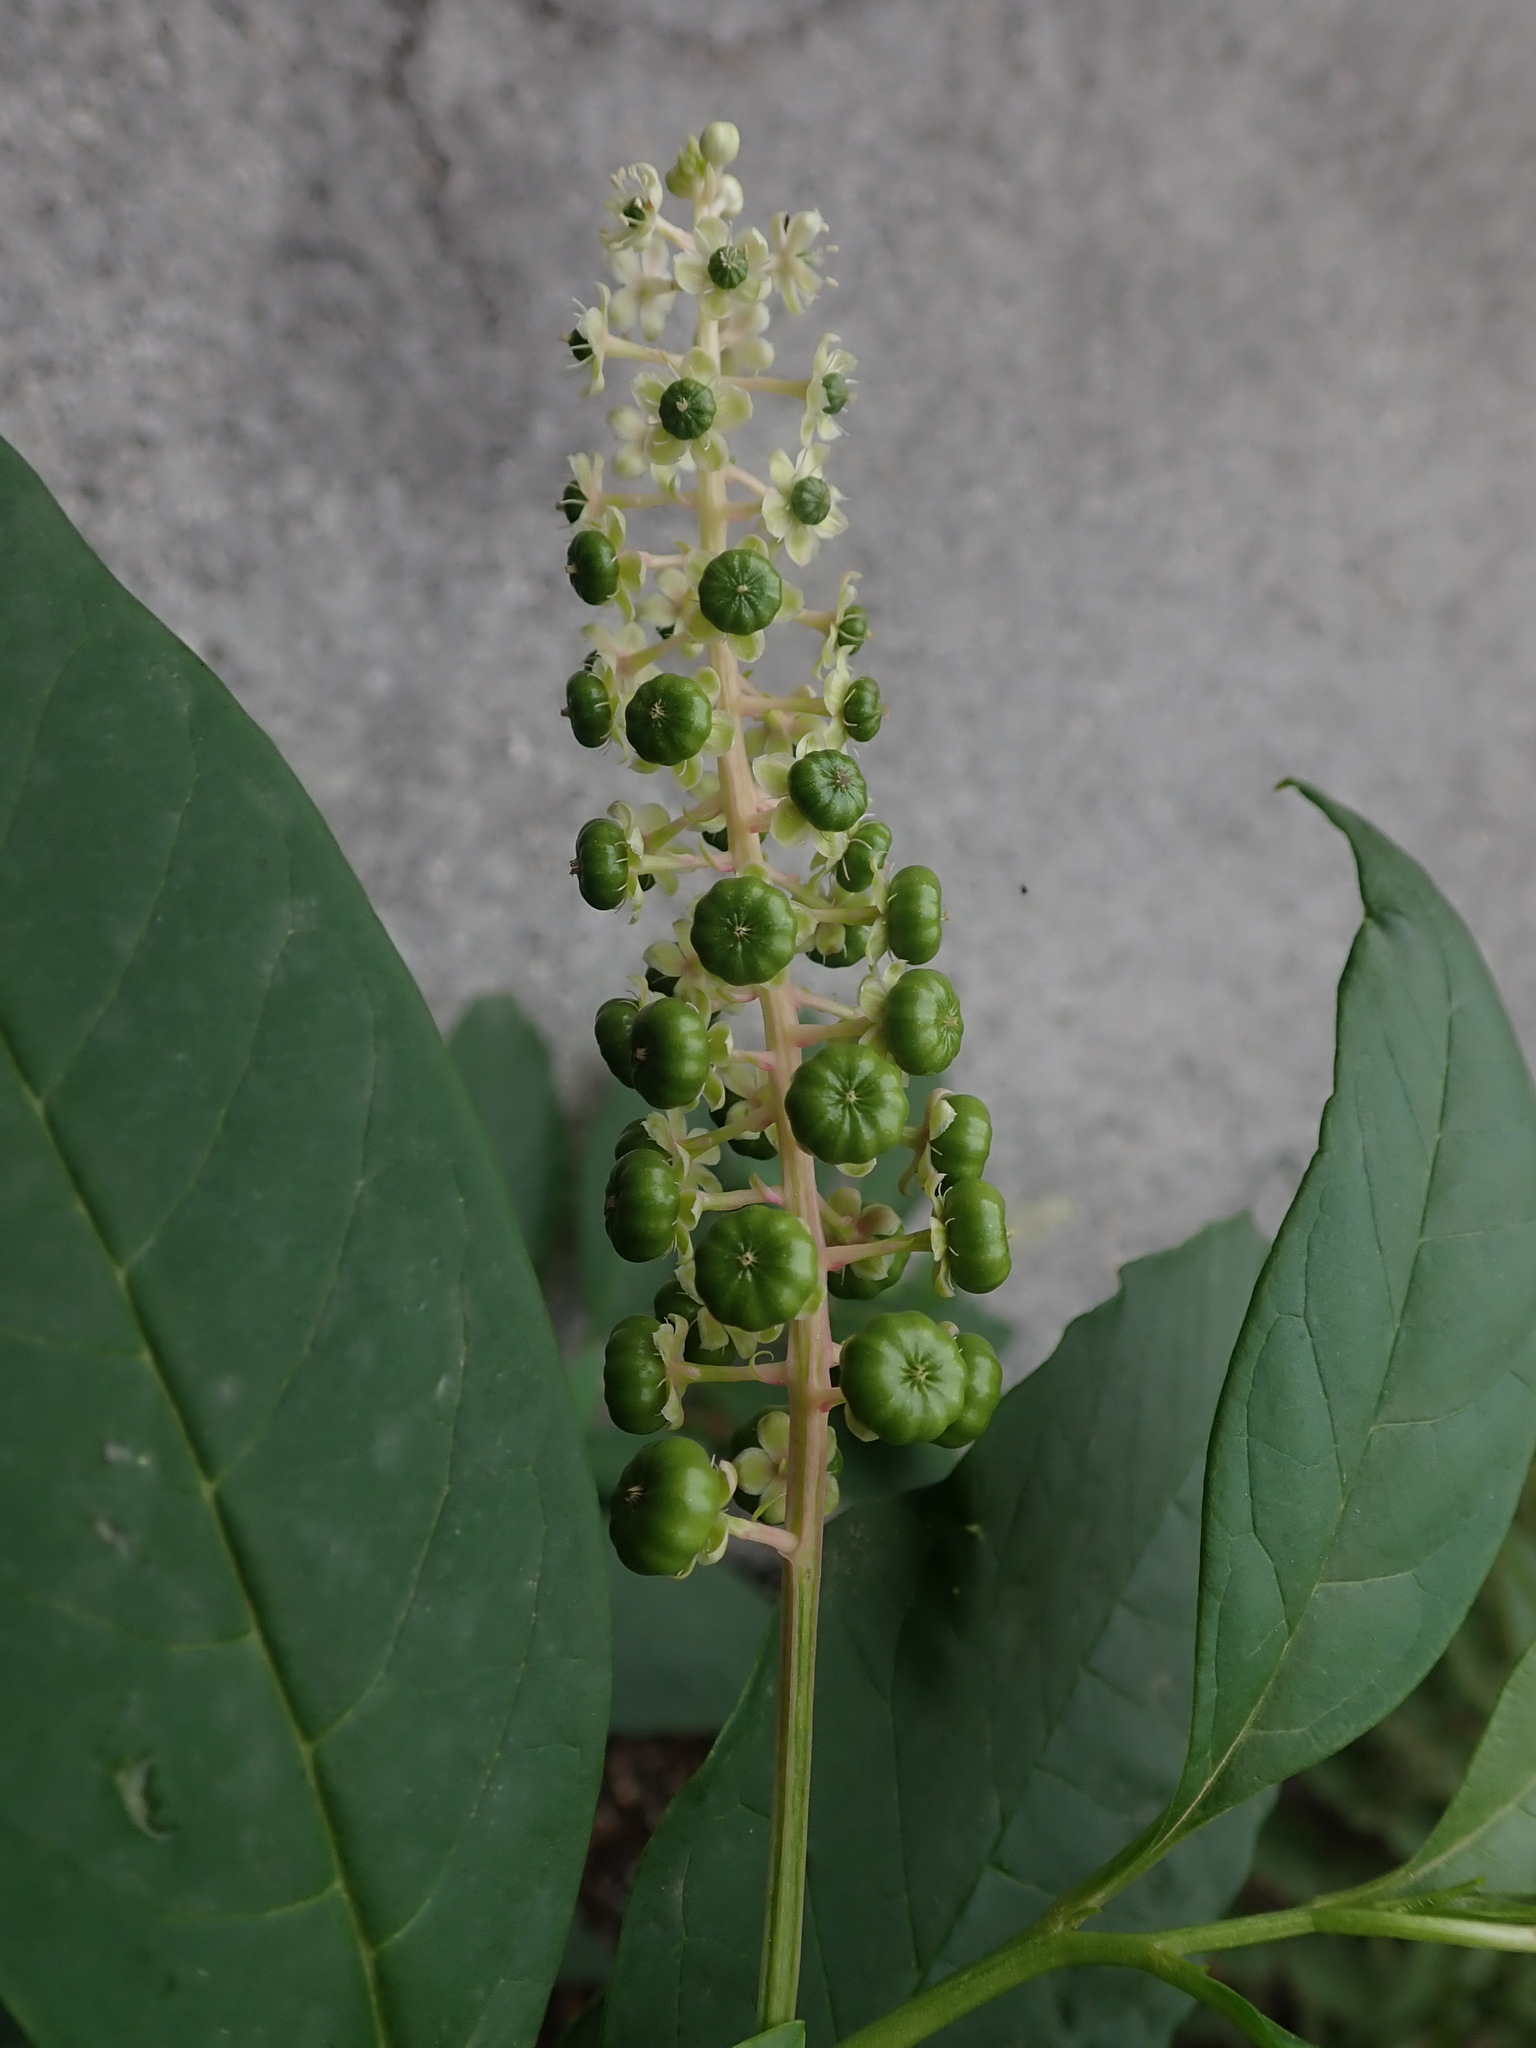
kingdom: Plantae
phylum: Tracheophyta
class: Magnoliopsida
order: Caryophyllales
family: Phytolaccaceae
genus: Phytolacca
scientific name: Phytolacca americana
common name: American pokeweed
